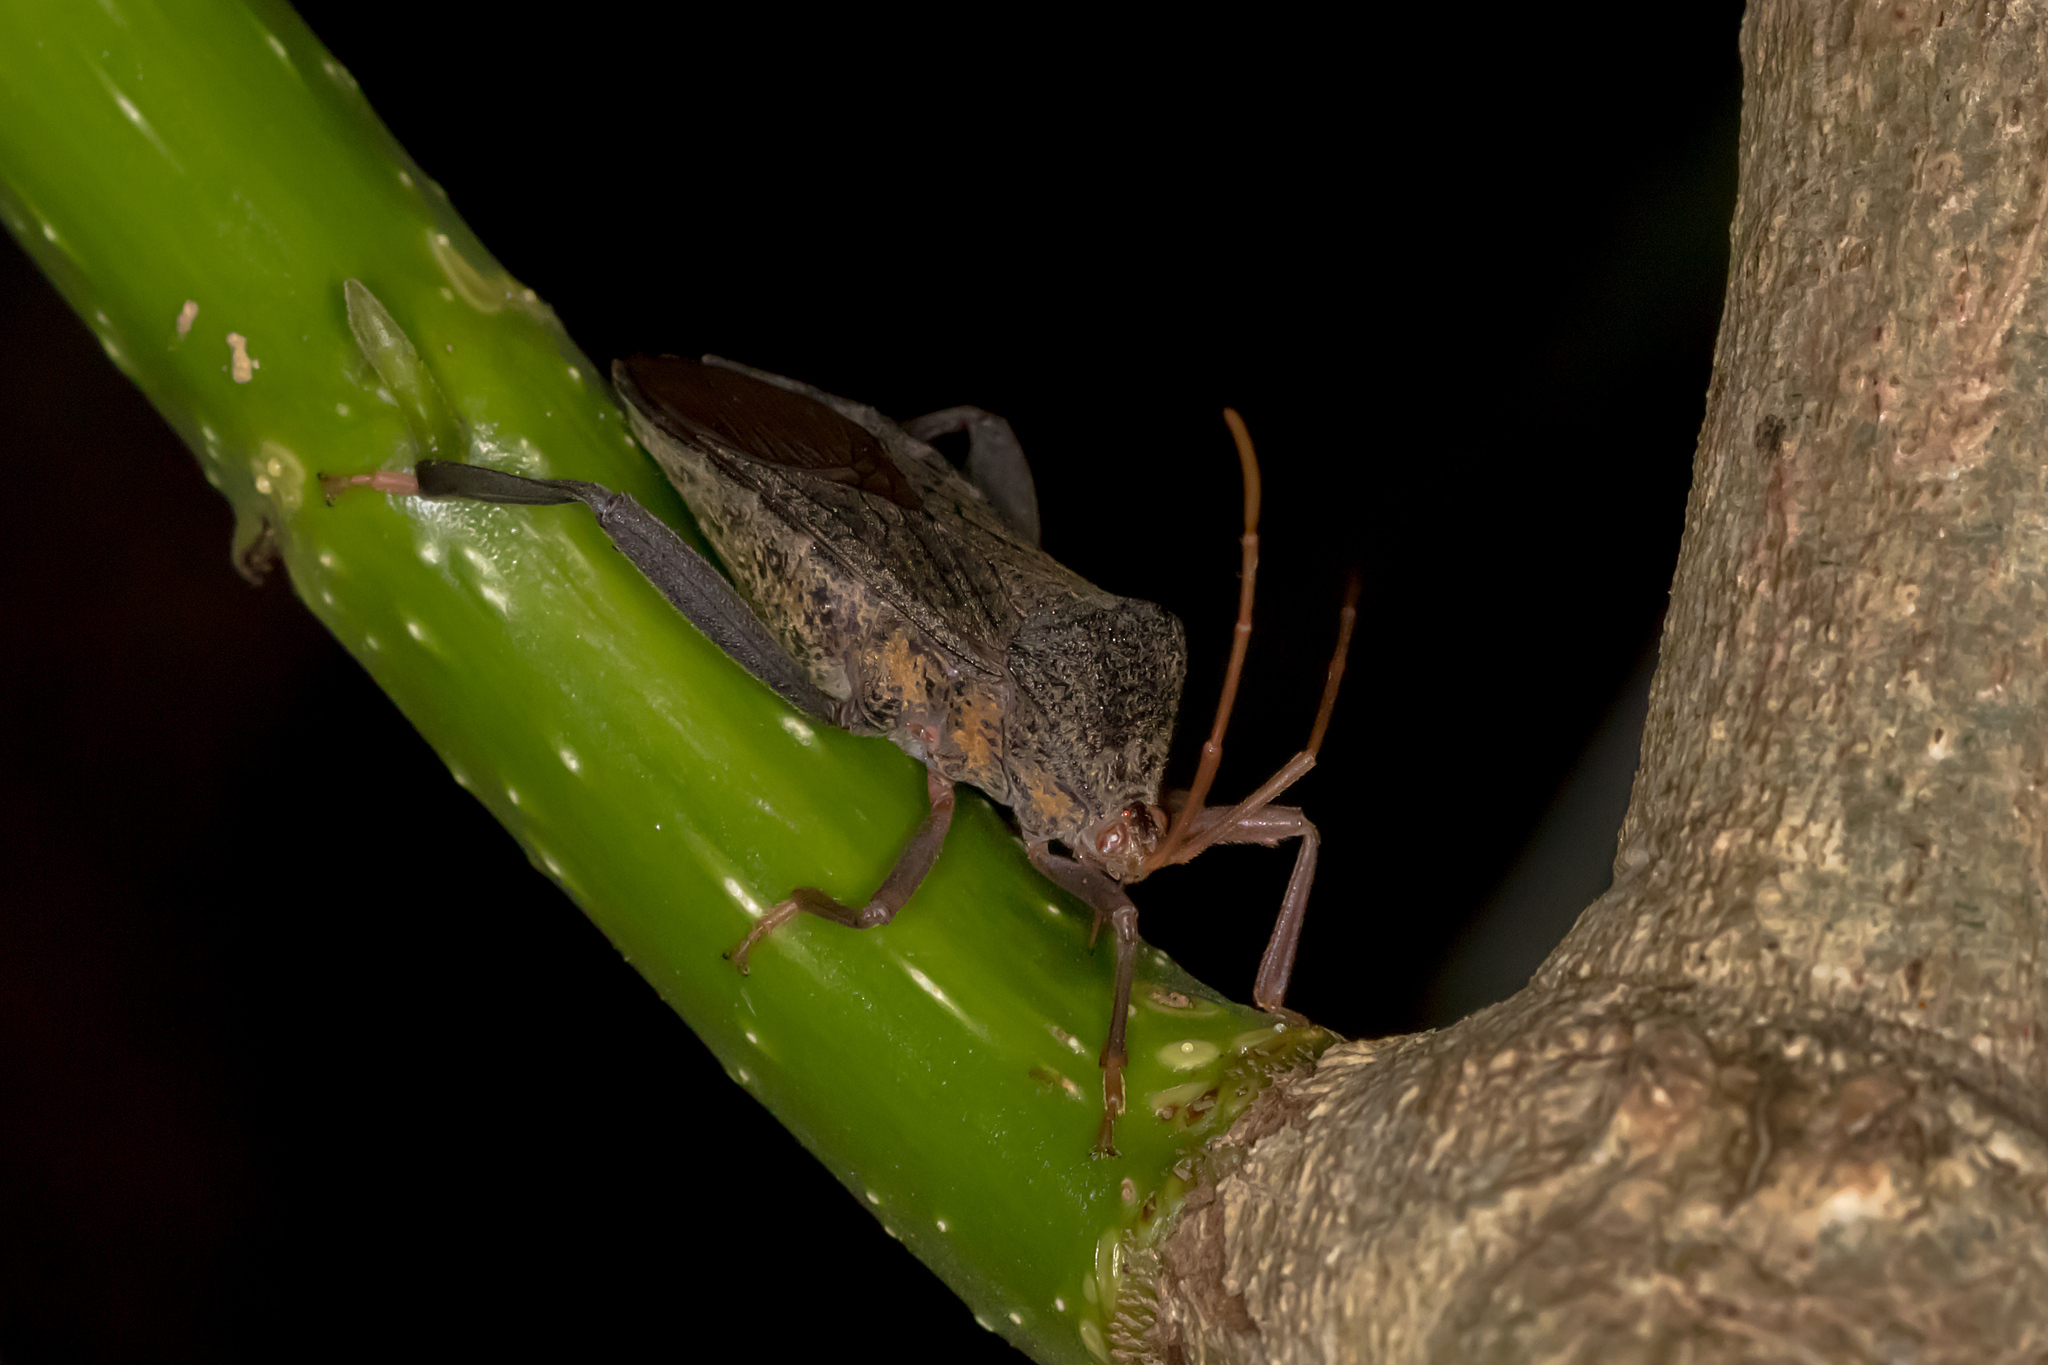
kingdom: Animalia
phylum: Arthropoda
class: Insecta
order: Hemiptera
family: Coreidae
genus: Pternistria
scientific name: Pternistria bispina
